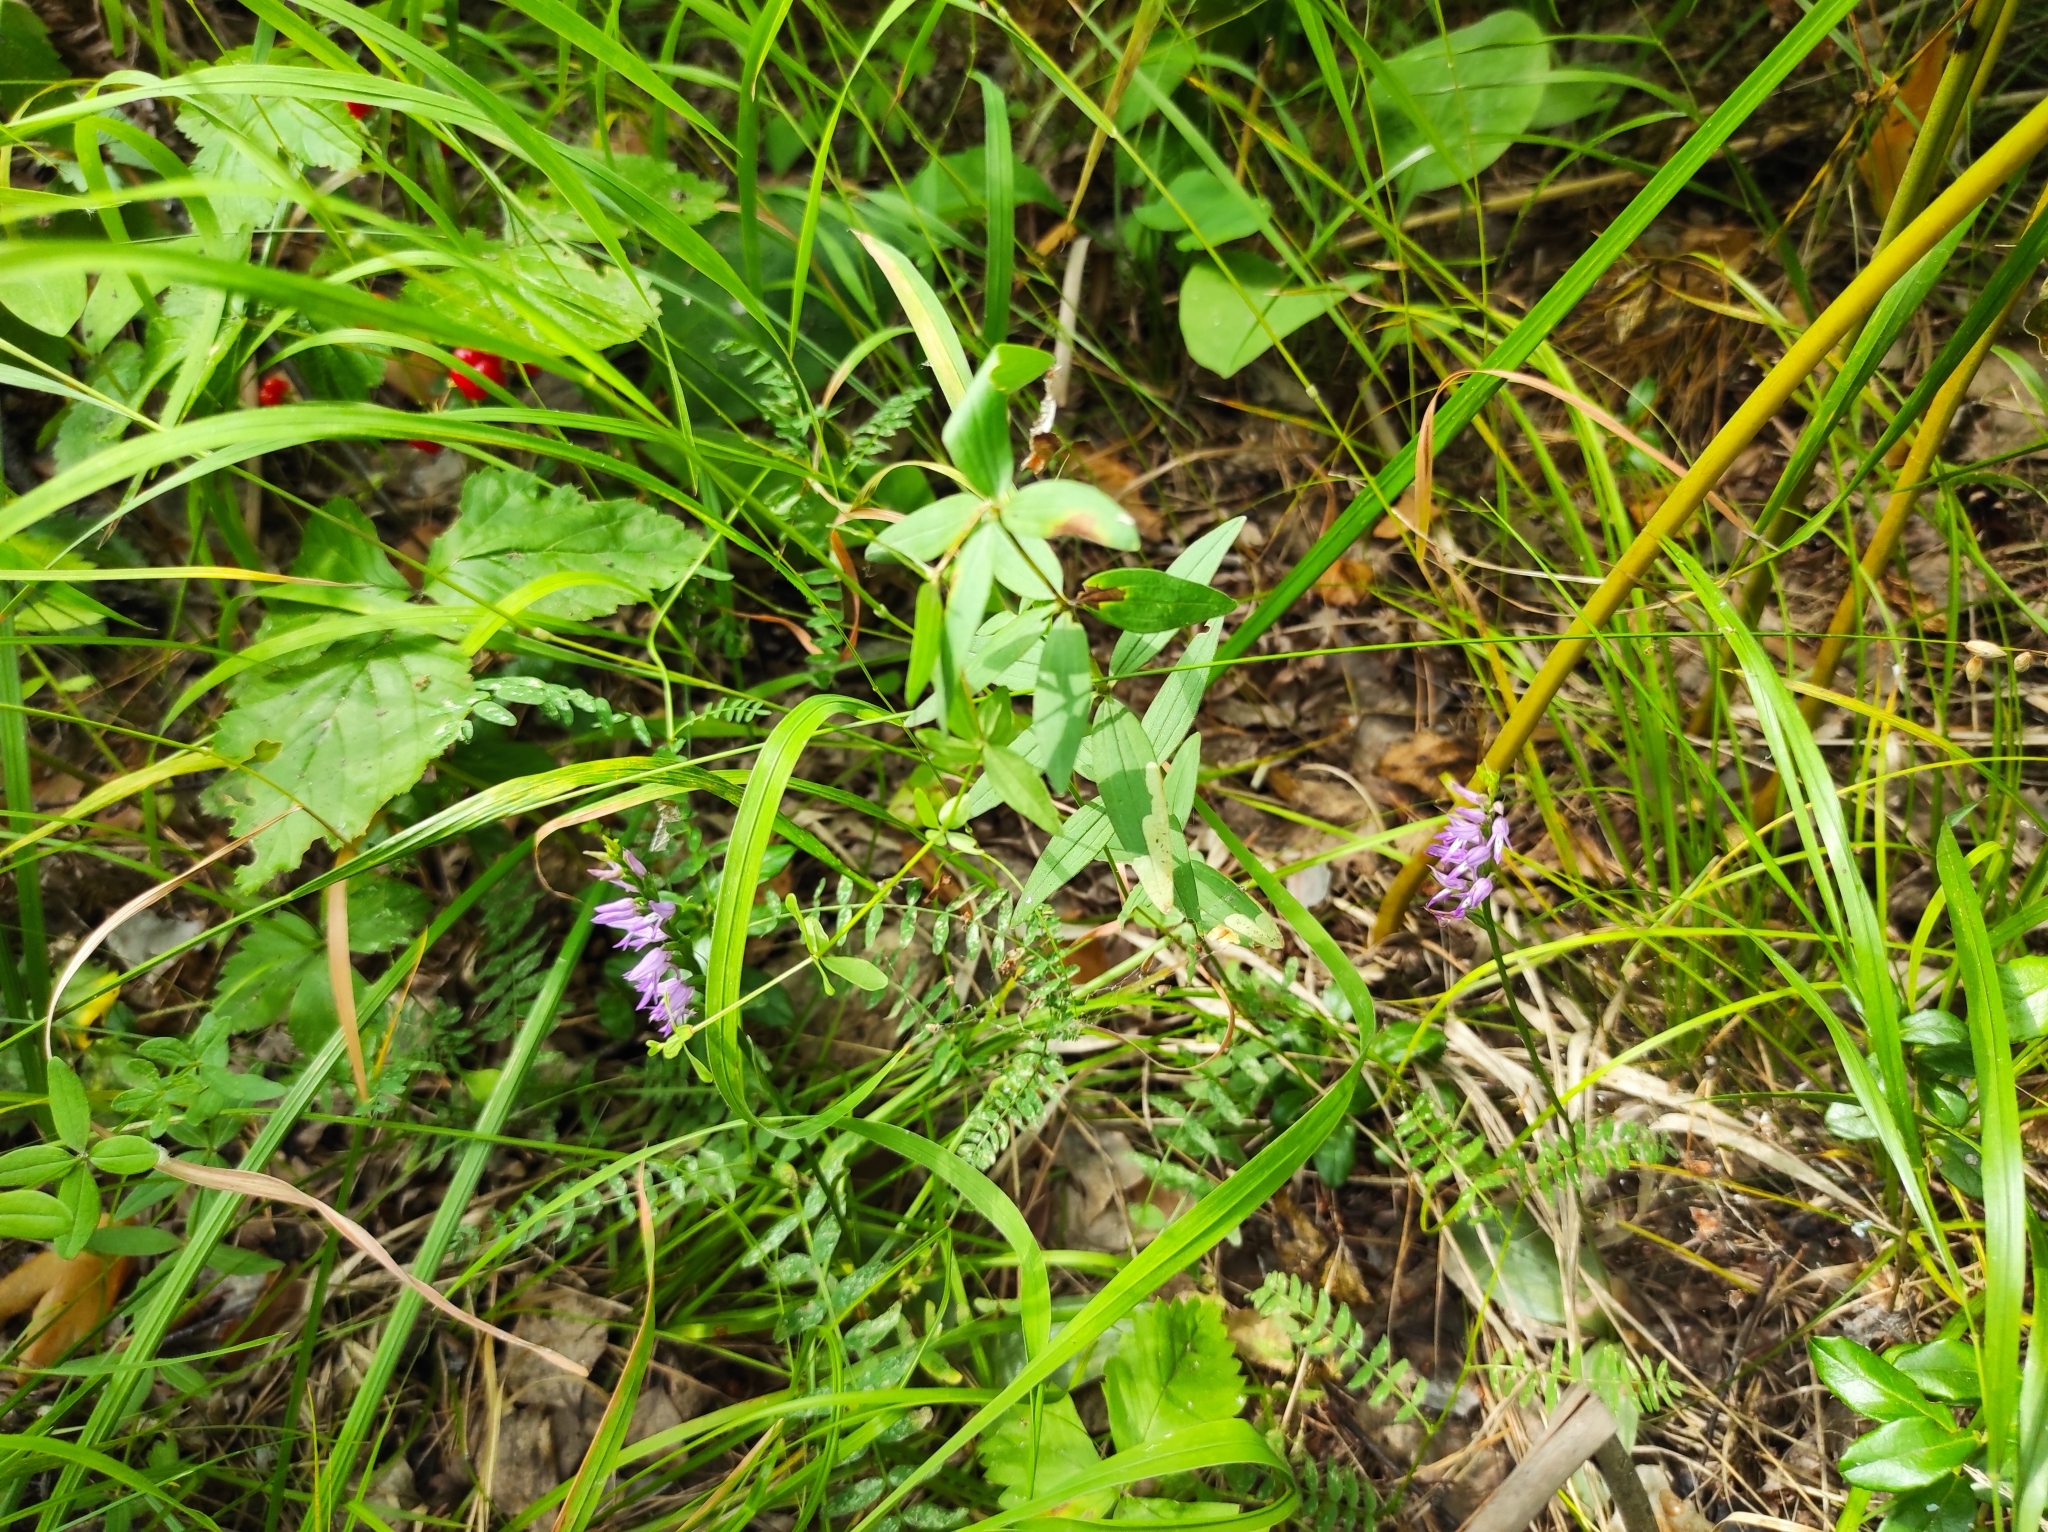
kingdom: Plantae
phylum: Tracheophyta
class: Liliopsida
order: Asparagales
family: Orchidaceae
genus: Hemipilia
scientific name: Hemipilia cucullata
